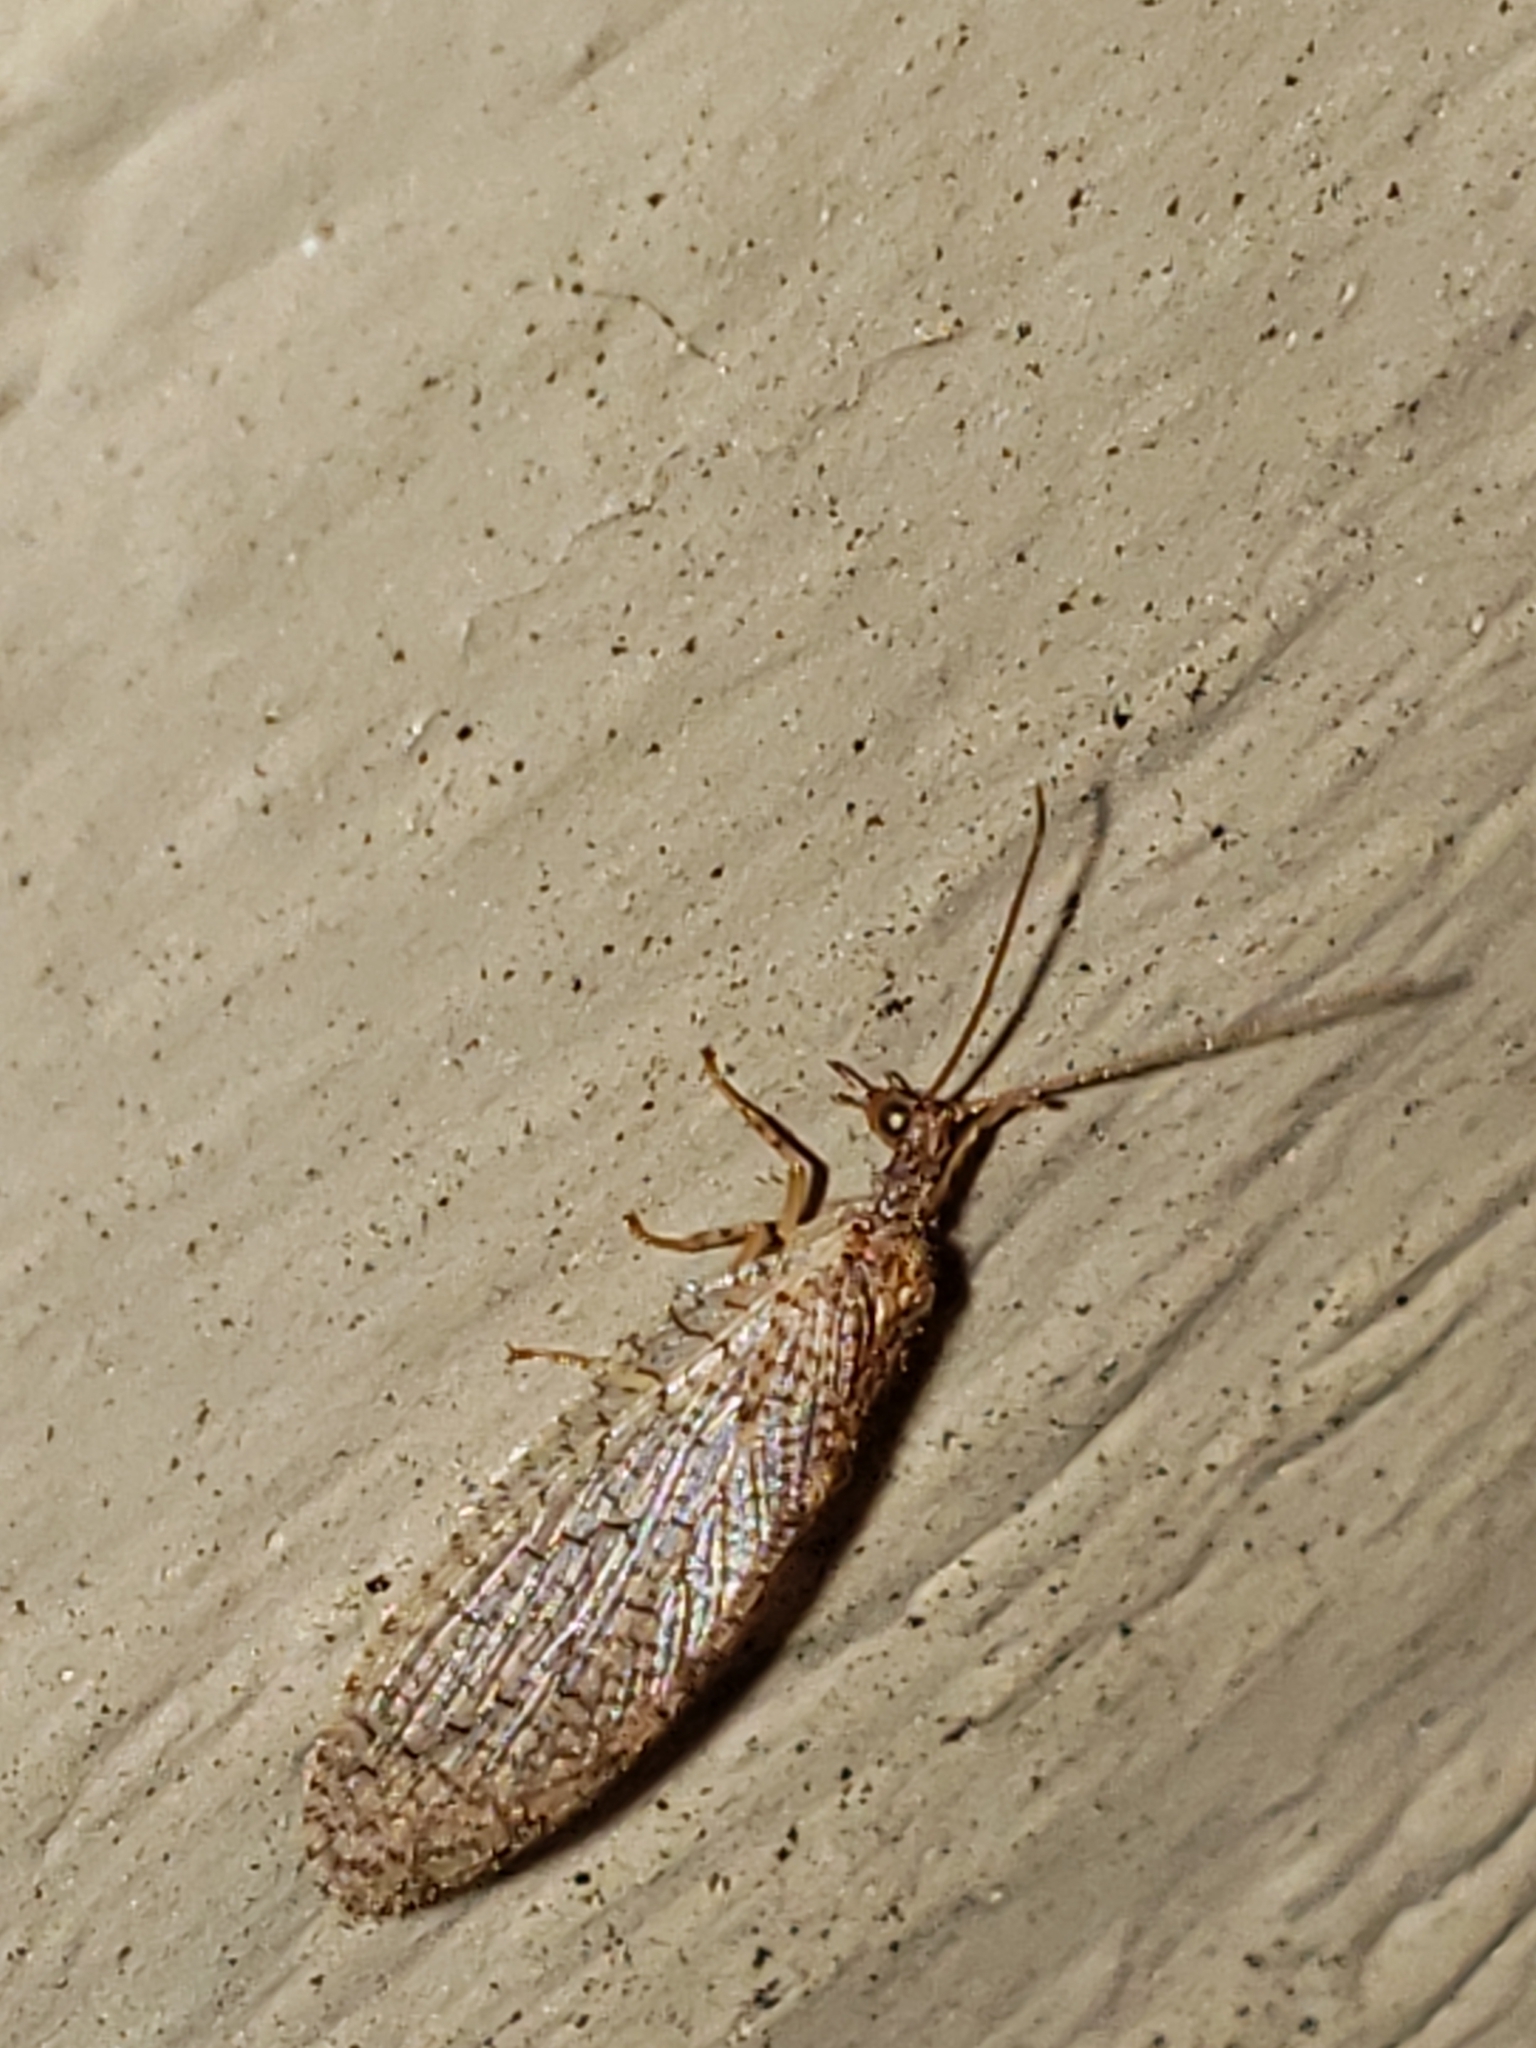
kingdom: Animalia
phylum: Arthropoda
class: Insecta
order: Neuroptera
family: Hemerobiidae
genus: Micromus
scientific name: Micromus posticus
